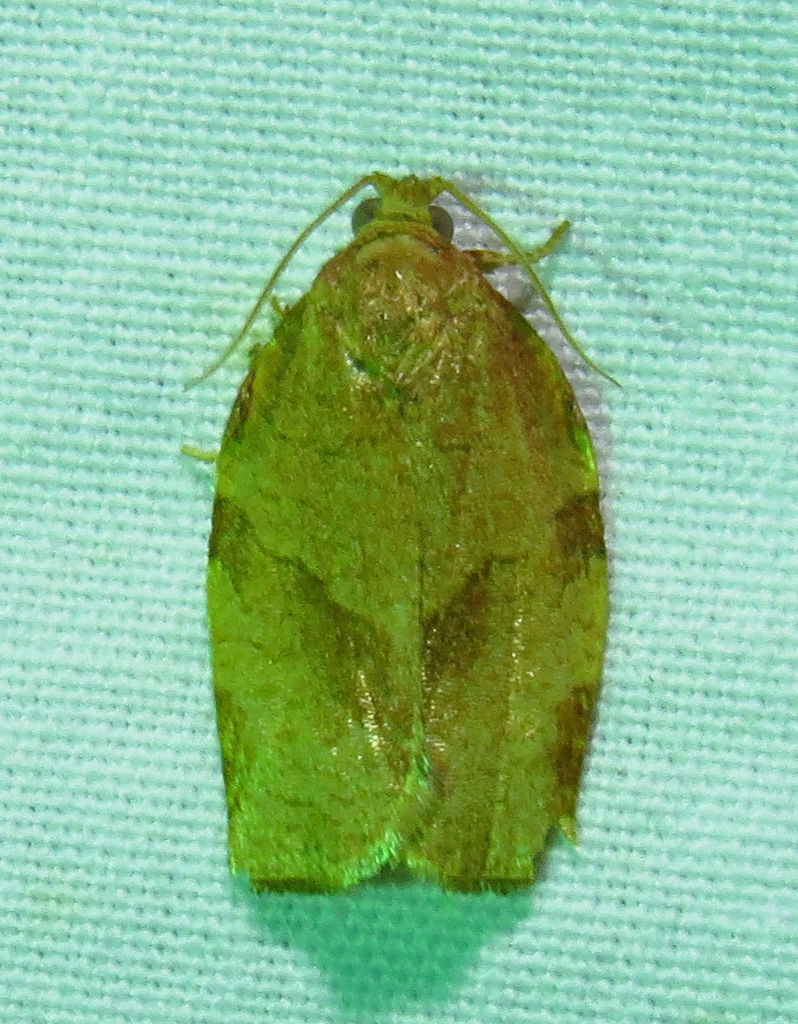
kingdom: Animalia
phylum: Arthropoda
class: Insecta
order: Lepidoptera
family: Tortricidae
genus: Choristoneura
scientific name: Choristoneura rosaceana
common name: Oblique-banded leafroller moth
